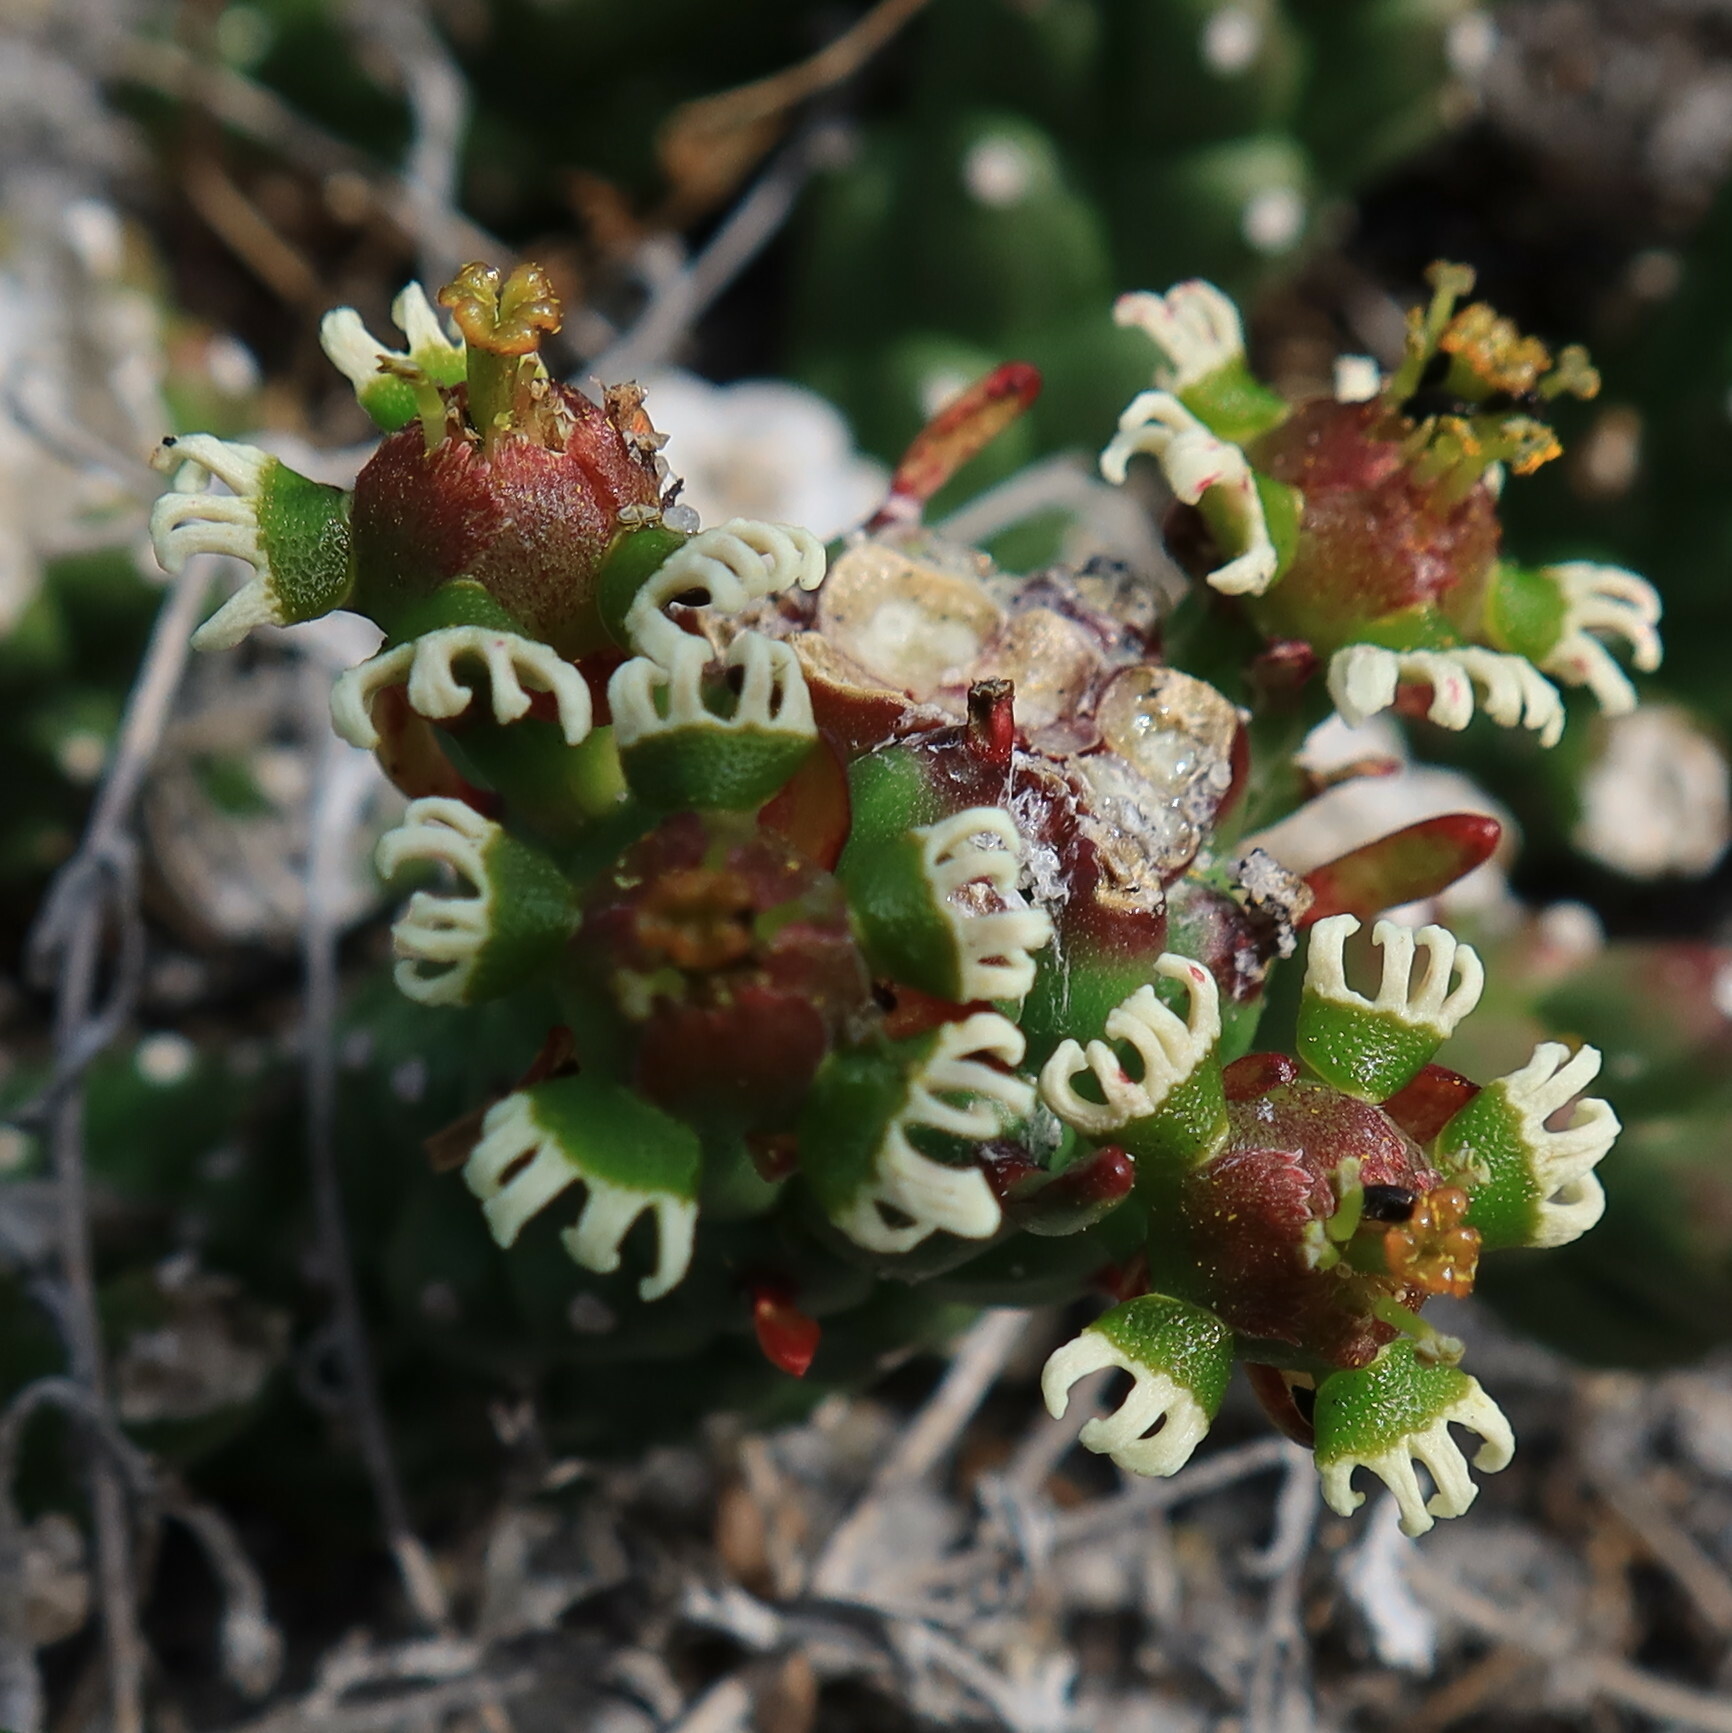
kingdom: Plantae
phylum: Tracheophyta
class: Magnoliopsida
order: Malpighiales
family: Euphorbiaceae
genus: Euphorbia
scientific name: Euphorbia caput-medusae
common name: Medusa's-head
